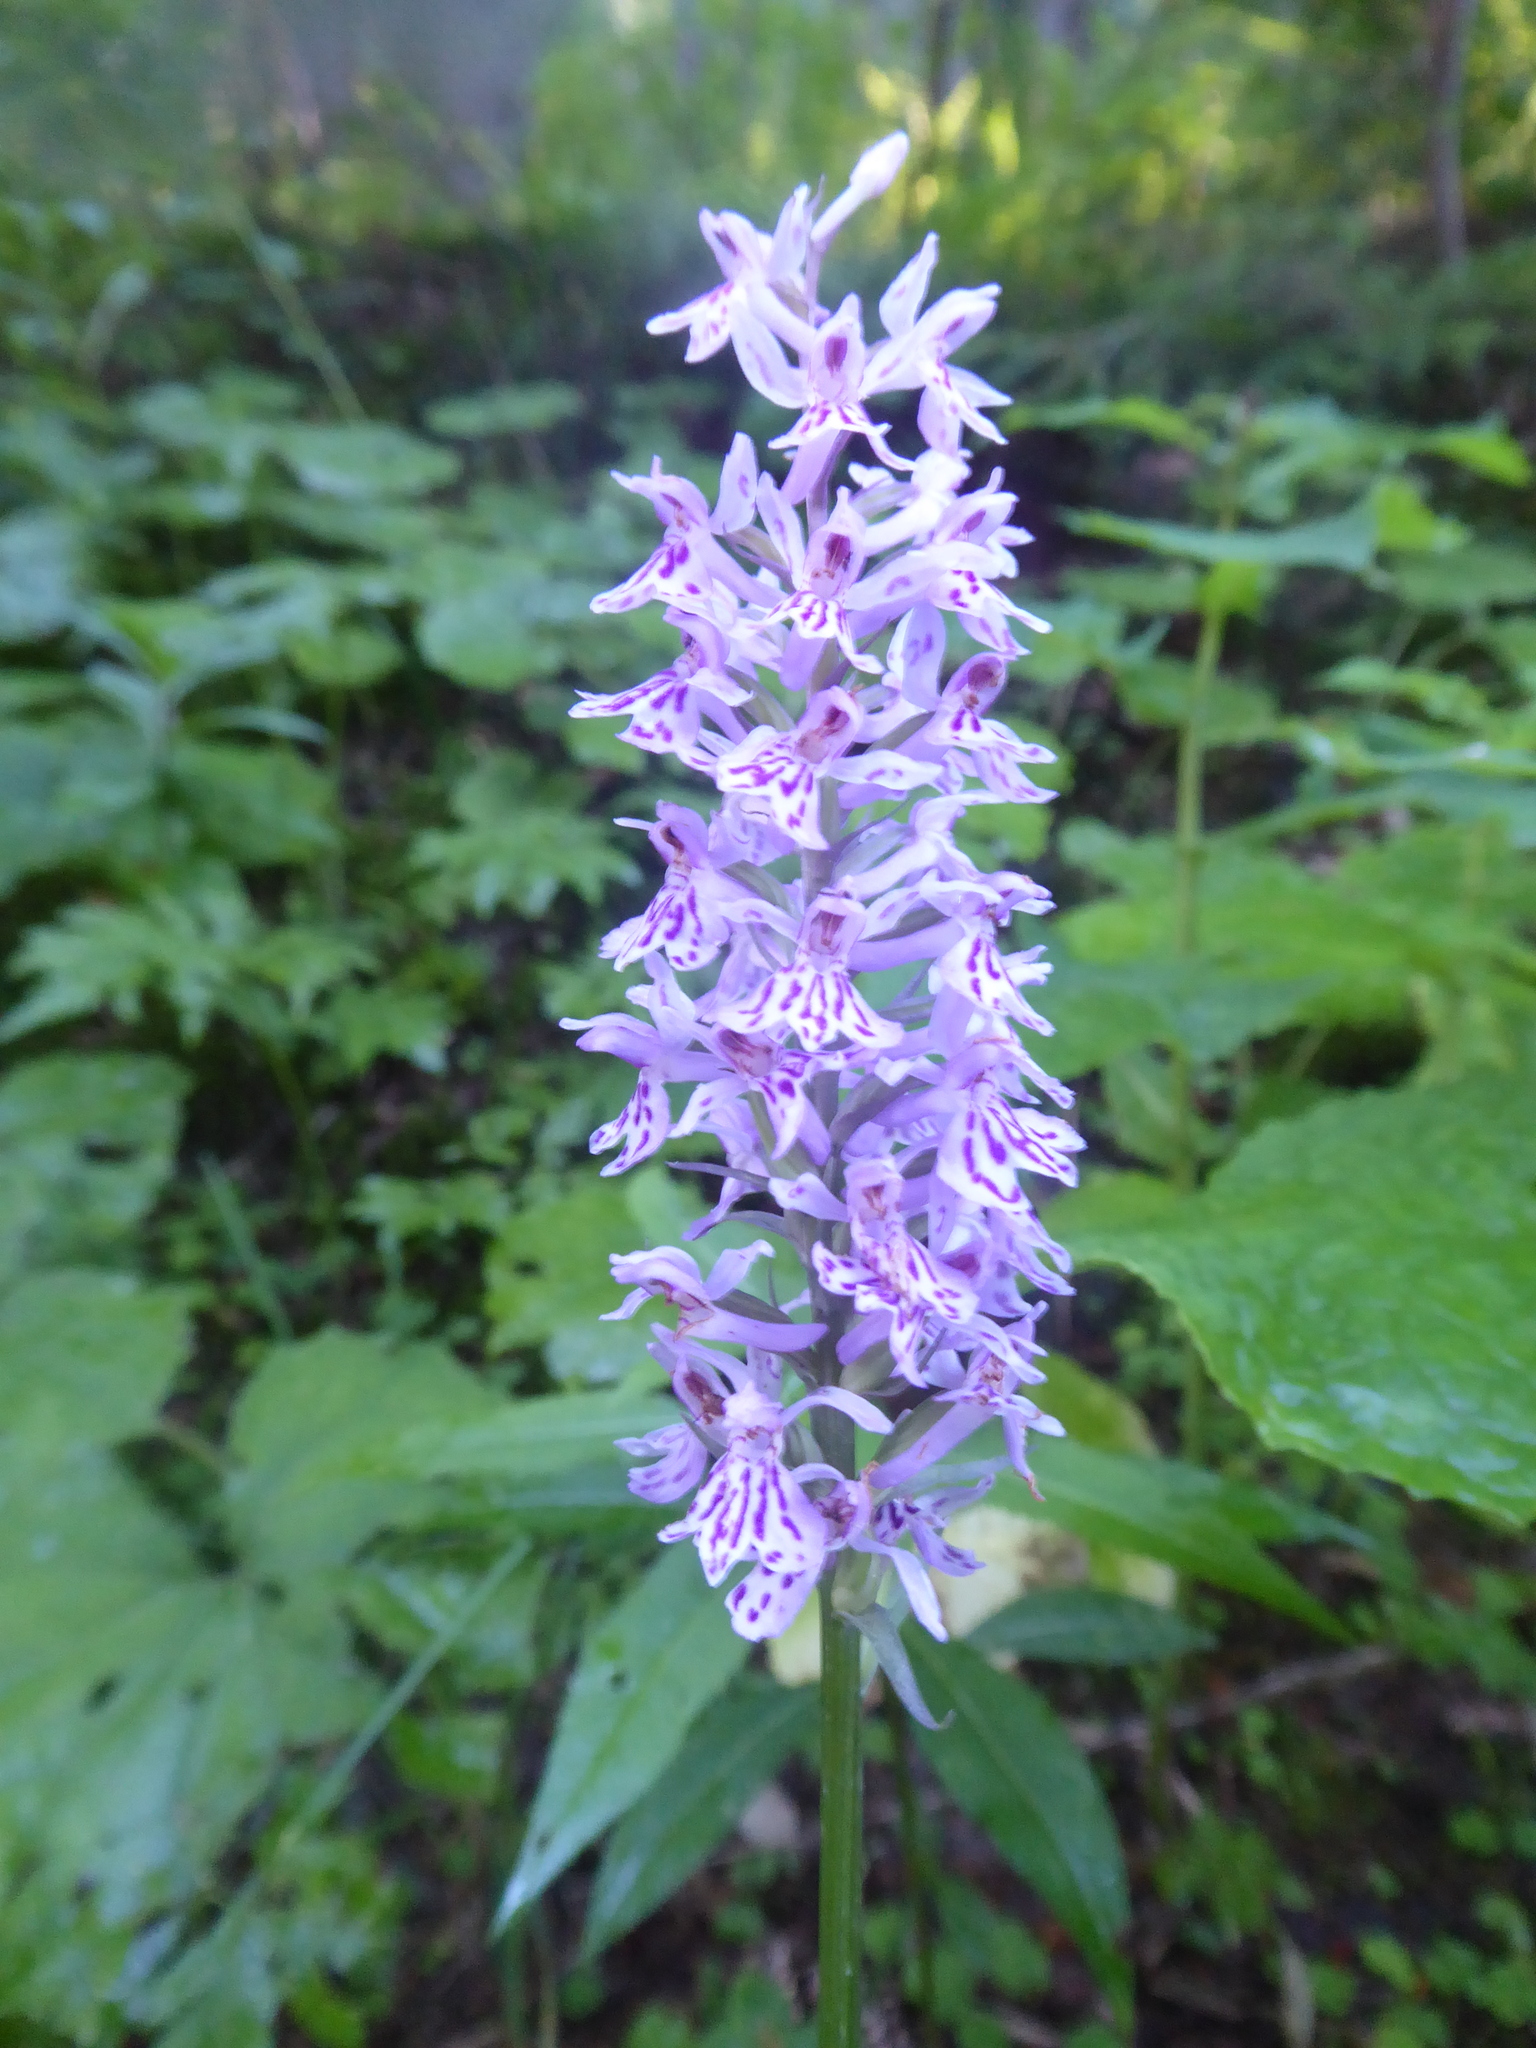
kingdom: Plantae
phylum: Tracheophyta
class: Liliopsida
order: Asparagales
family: Orchidaceae
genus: Dactylorhiza
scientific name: Dactylorhiza maculata
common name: Heath spotted-orchid
